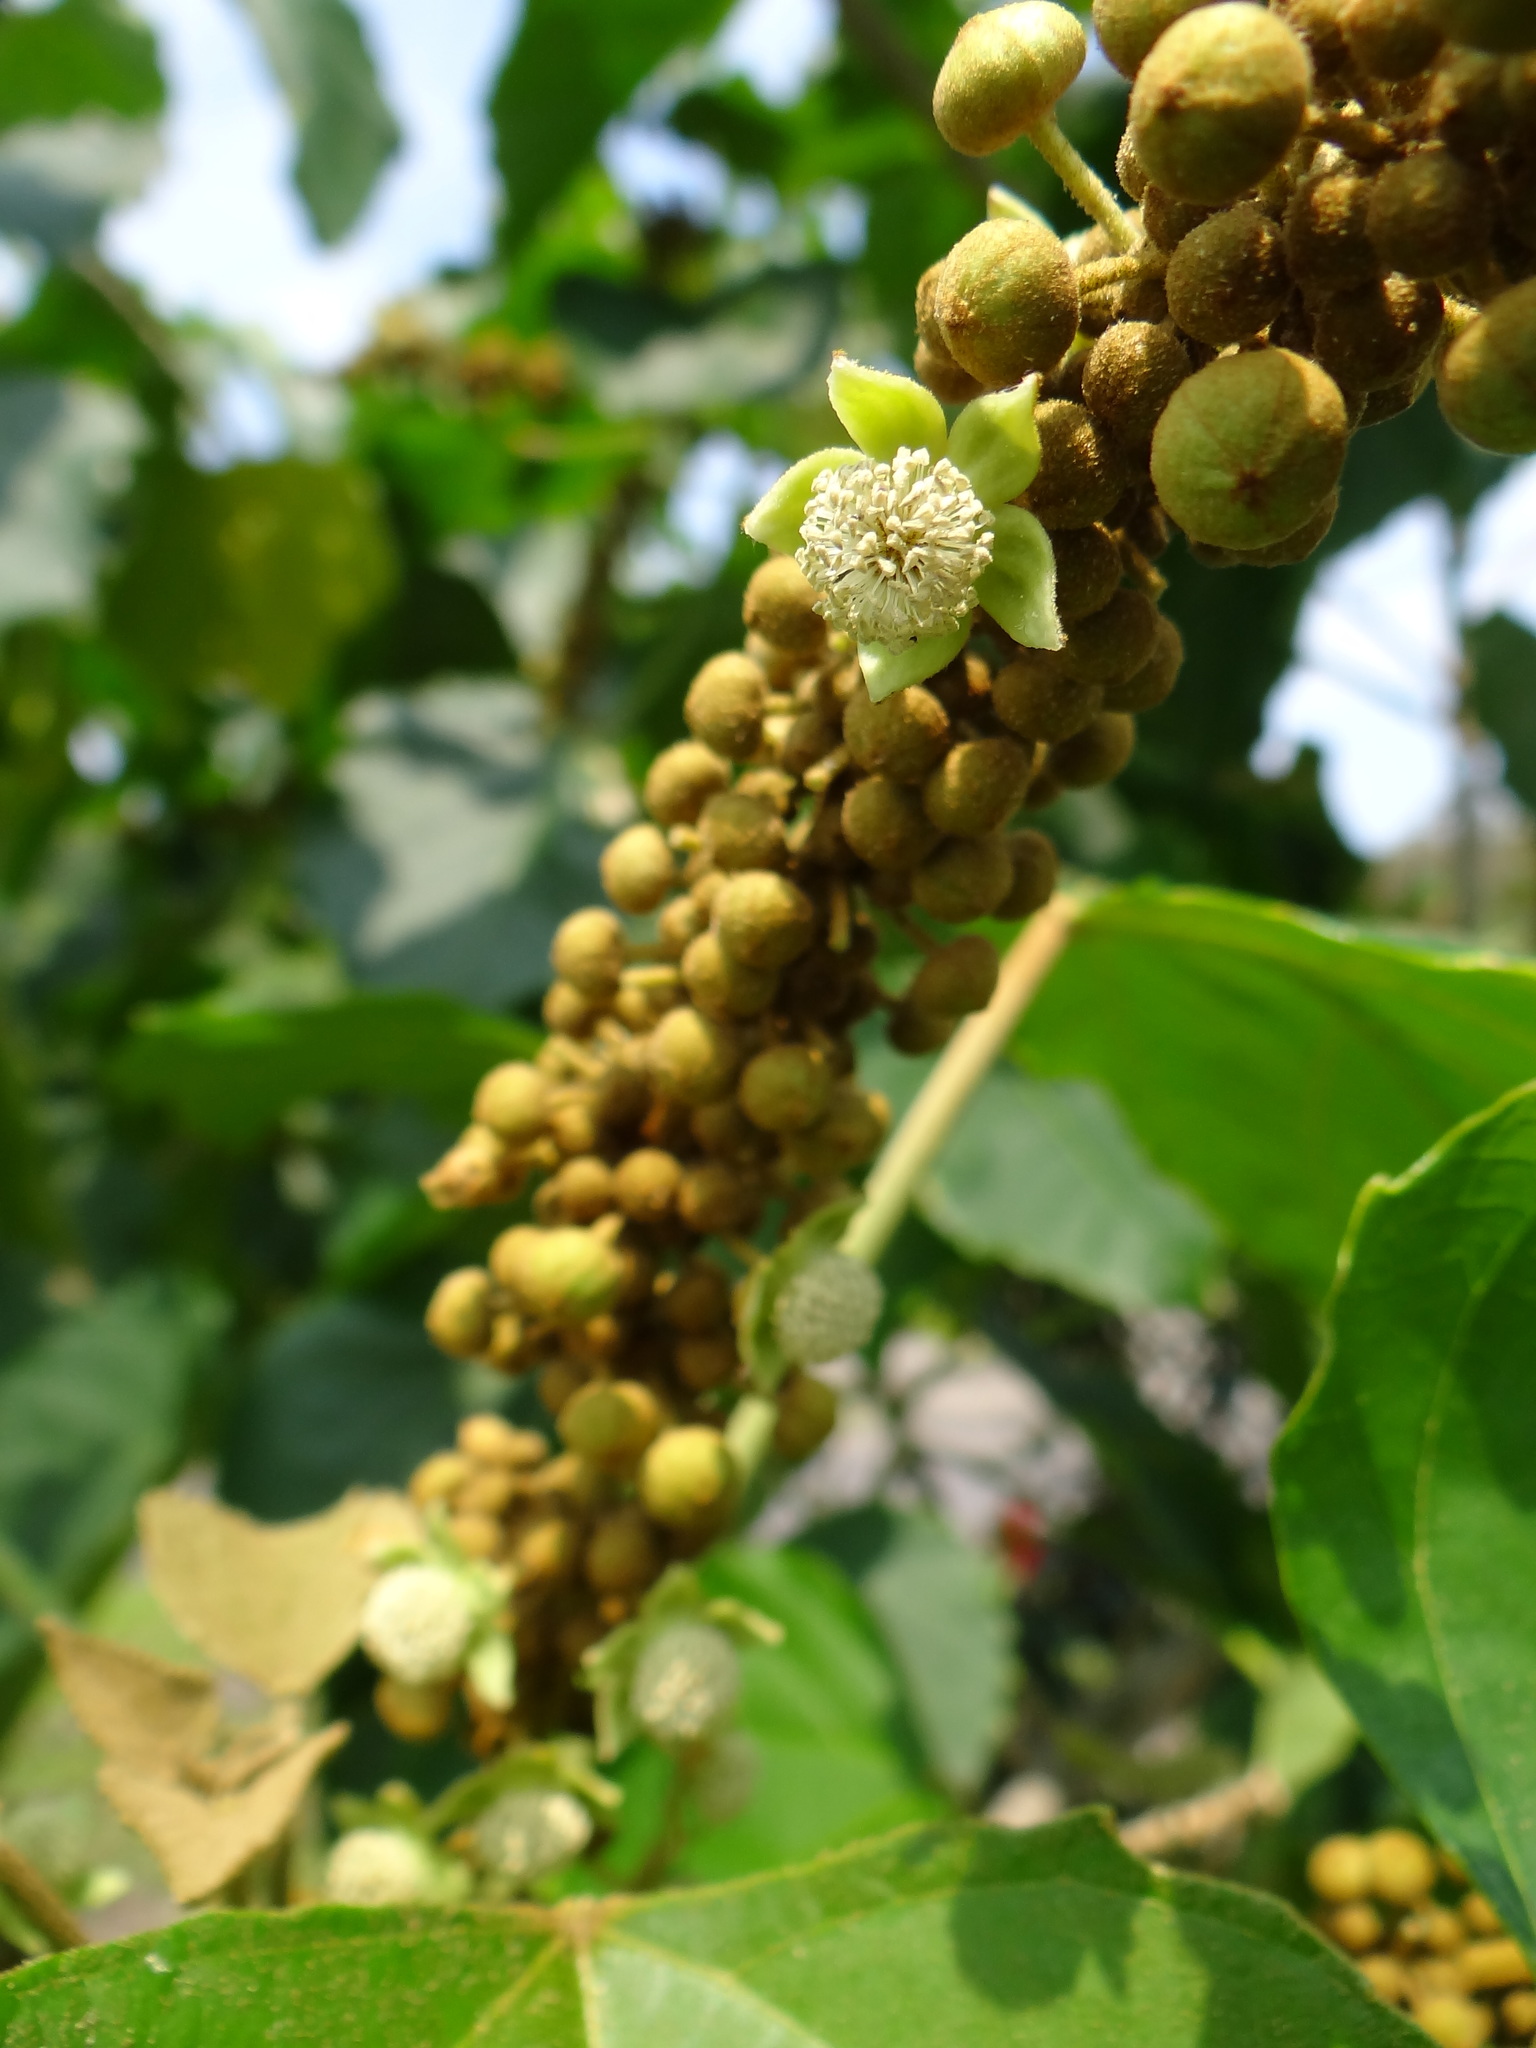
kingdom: Plantae
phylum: Tracheophyta
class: Magnoliopsida
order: Malpighiales
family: Euphorbiaceae
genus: Melanolepis
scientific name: Melanolepis multiglandulosa
